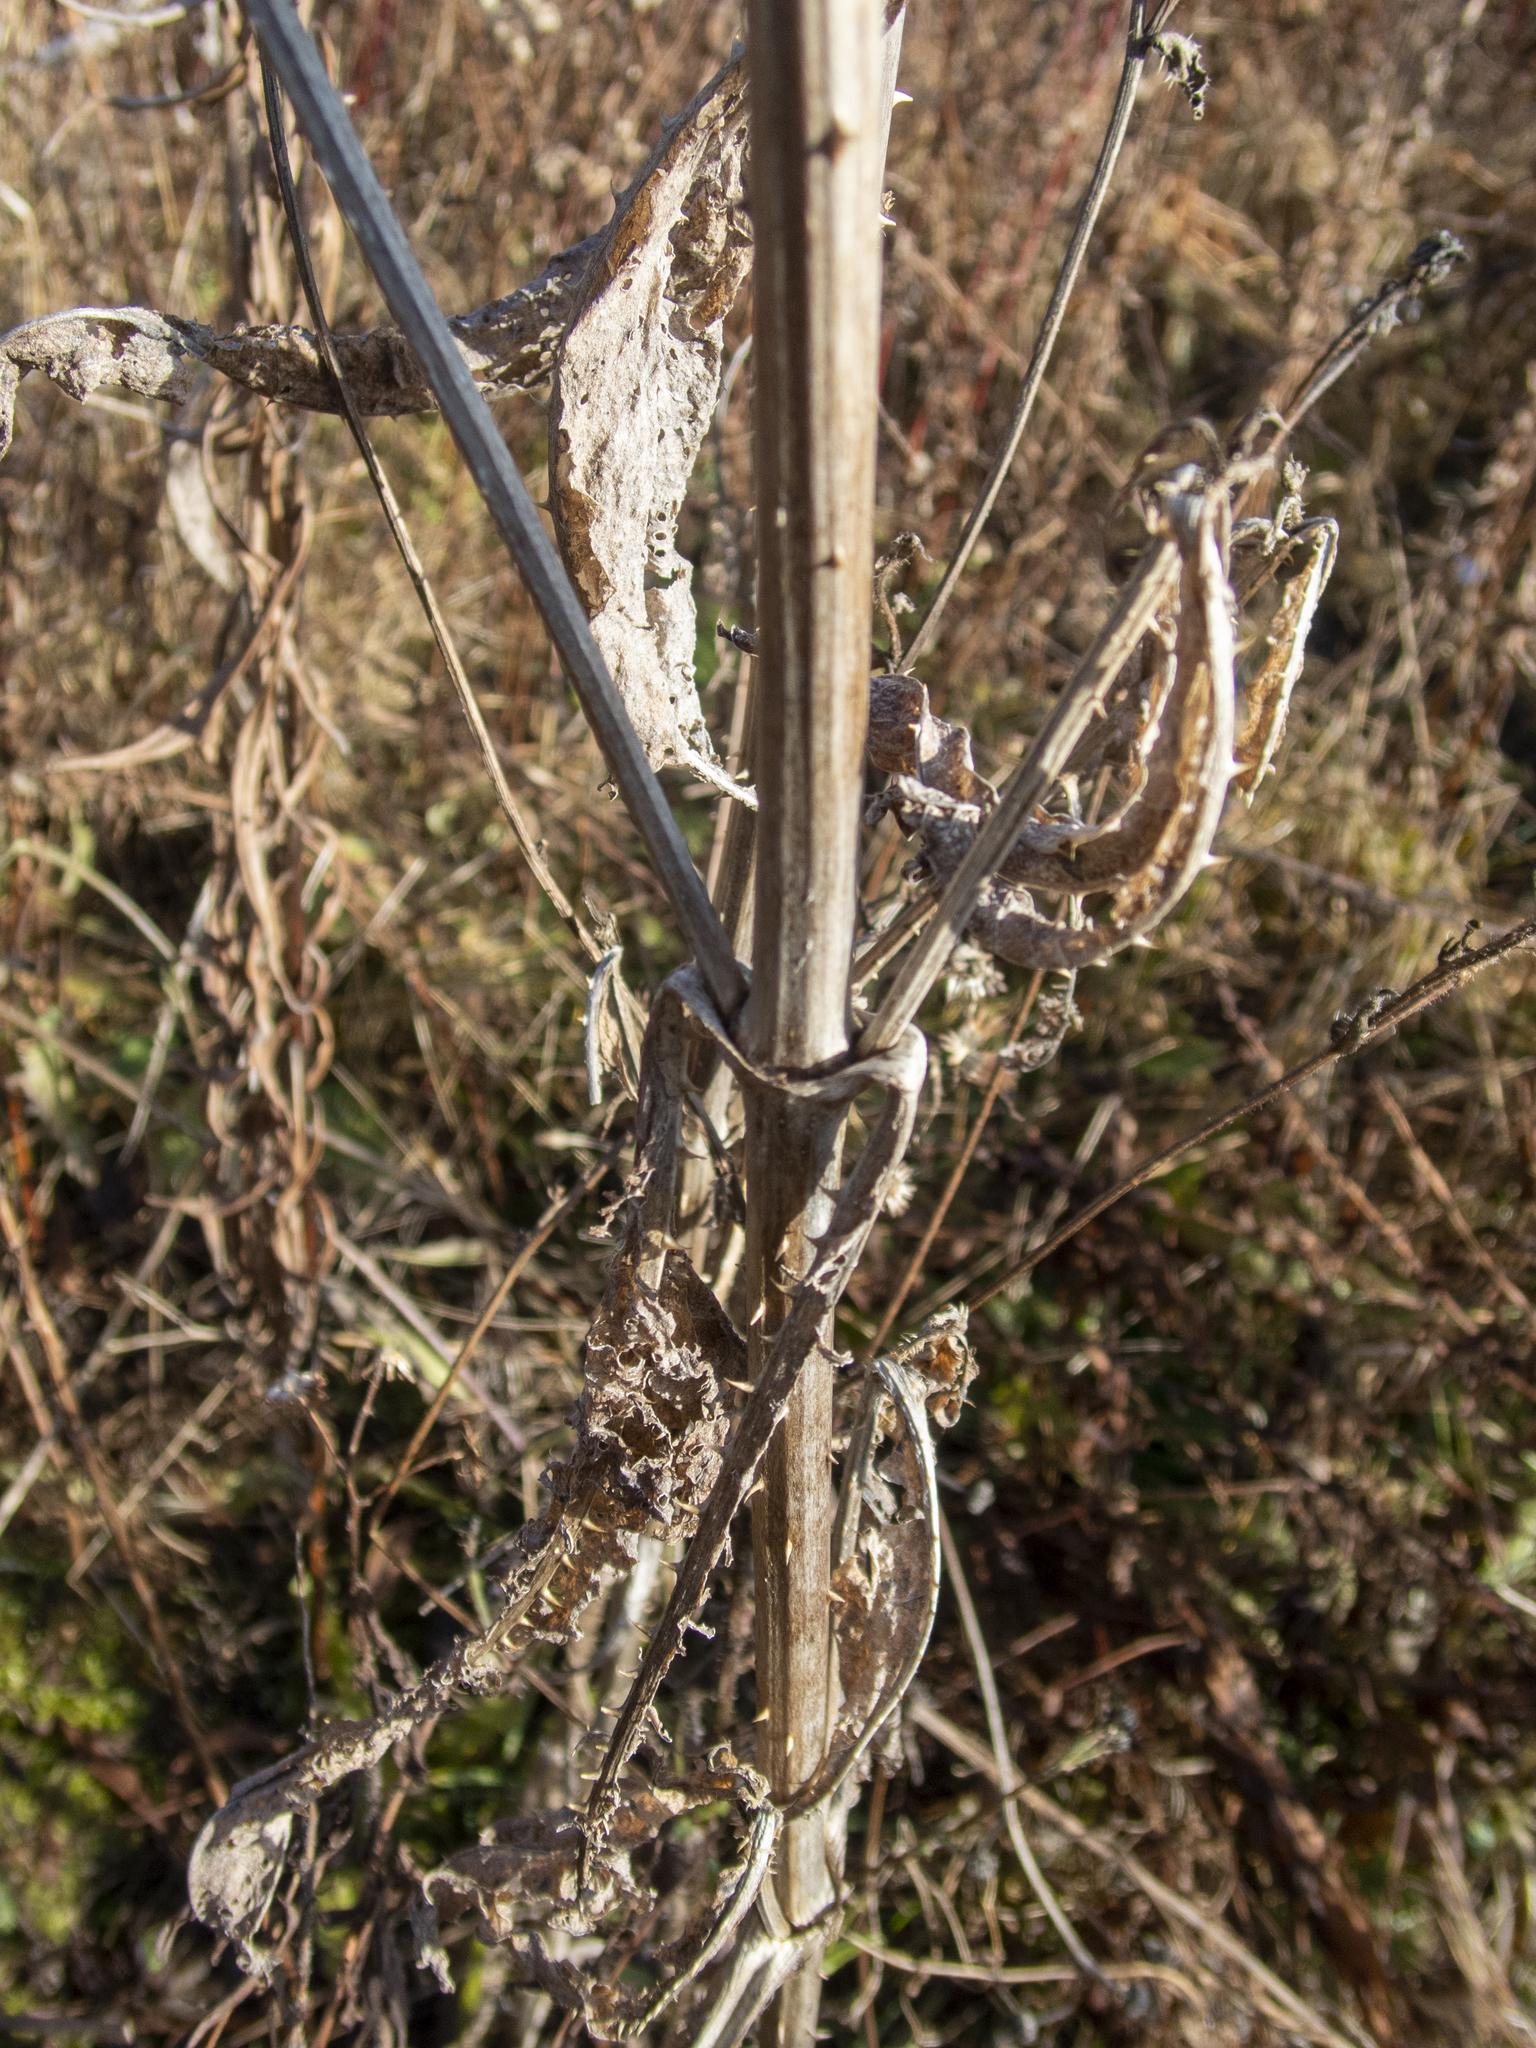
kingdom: Plantae
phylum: Tracheophyta
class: Magnoliopsida
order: Dipsacales
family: Caprifoliaceae
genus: Dipsacus
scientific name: Dipsacus fullonum
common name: Teasel
